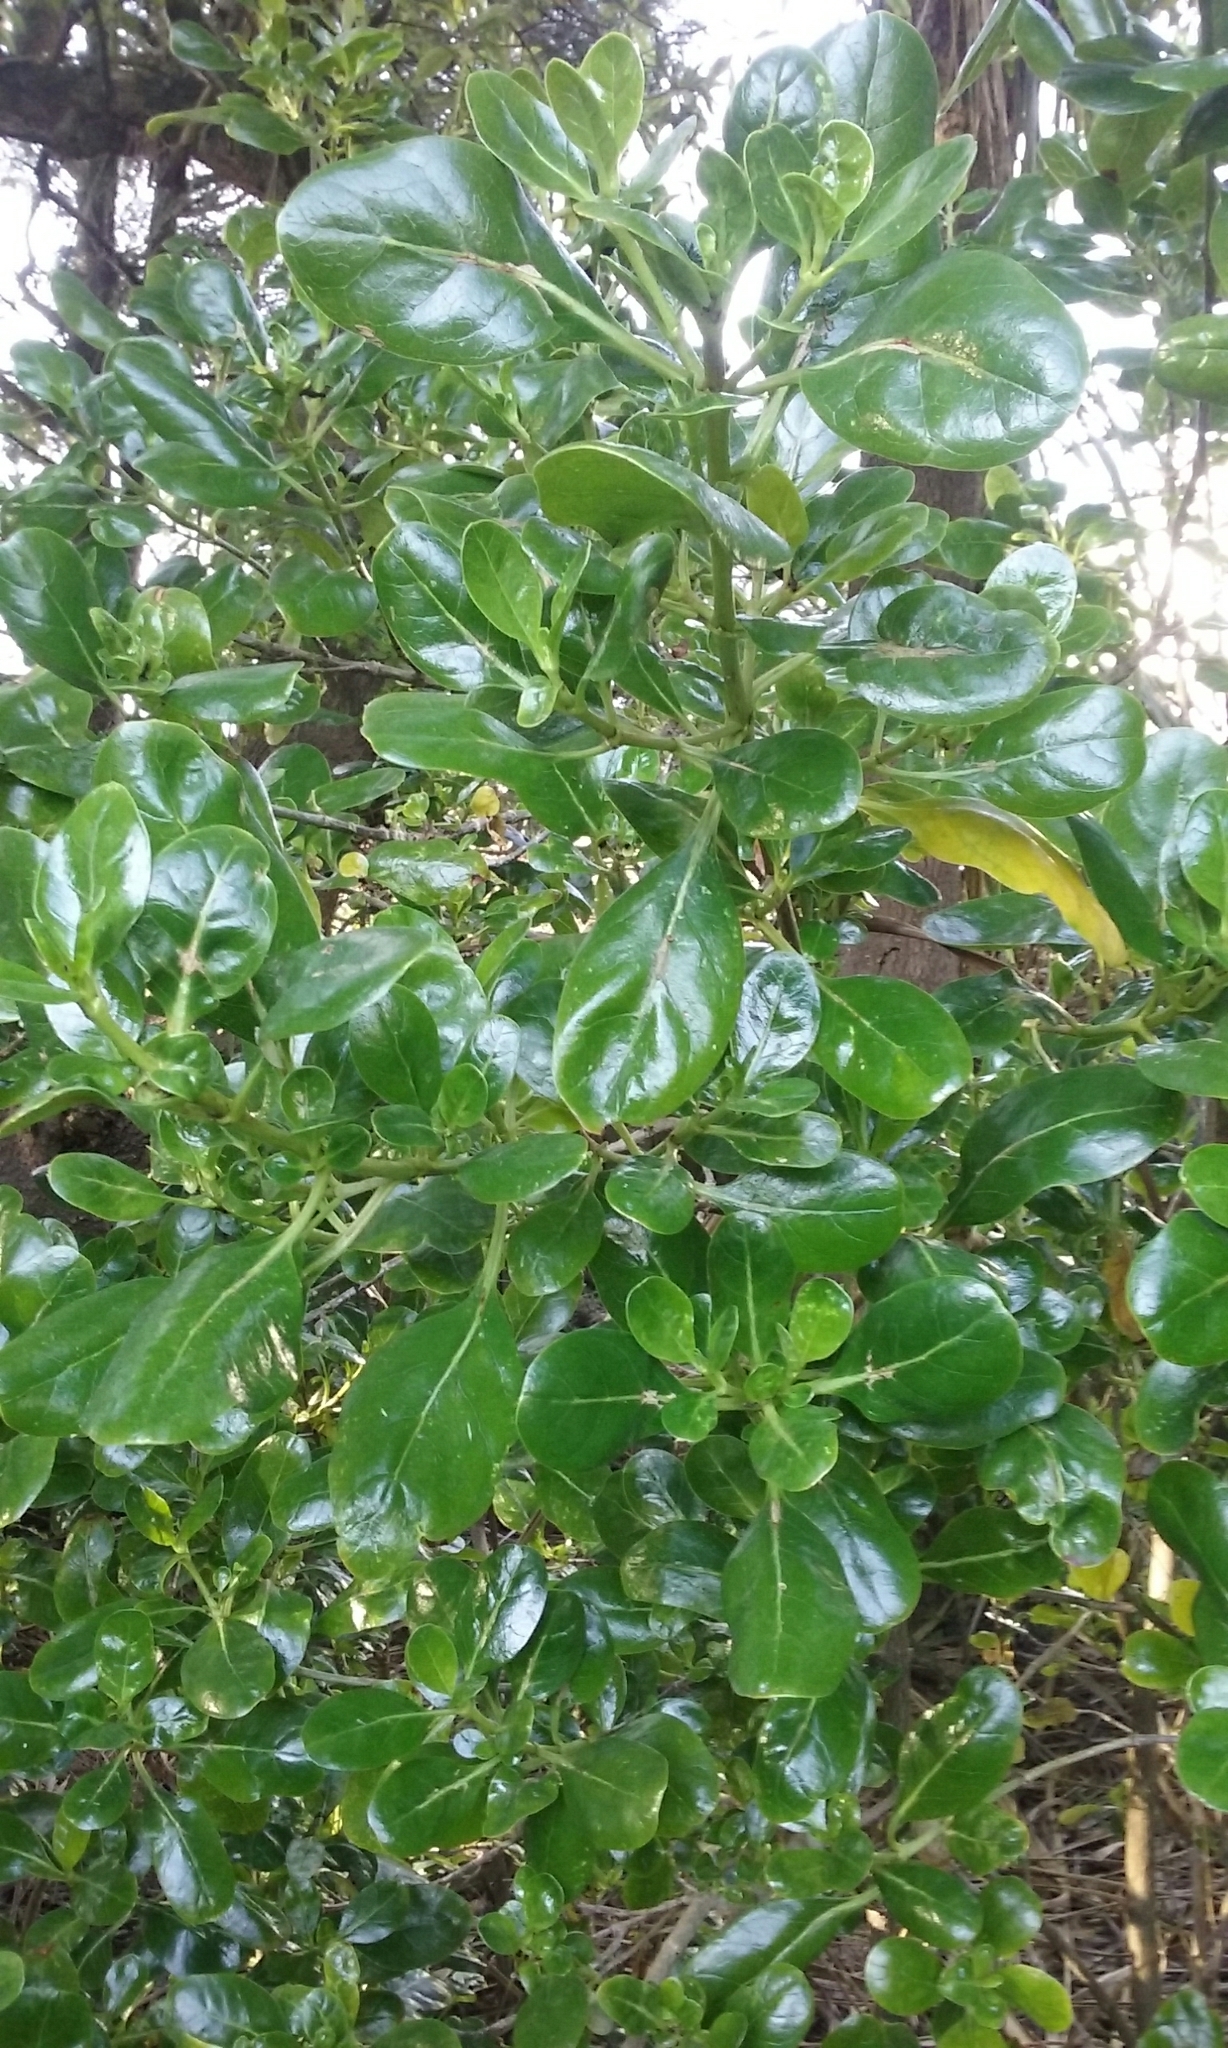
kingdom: Plantae
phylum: Tracheophyta
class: Magnoliopsida
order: Gentianales
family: Rubiaceae
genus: Coprosma
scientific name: Coprosma repens
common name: Tree bedstraw
